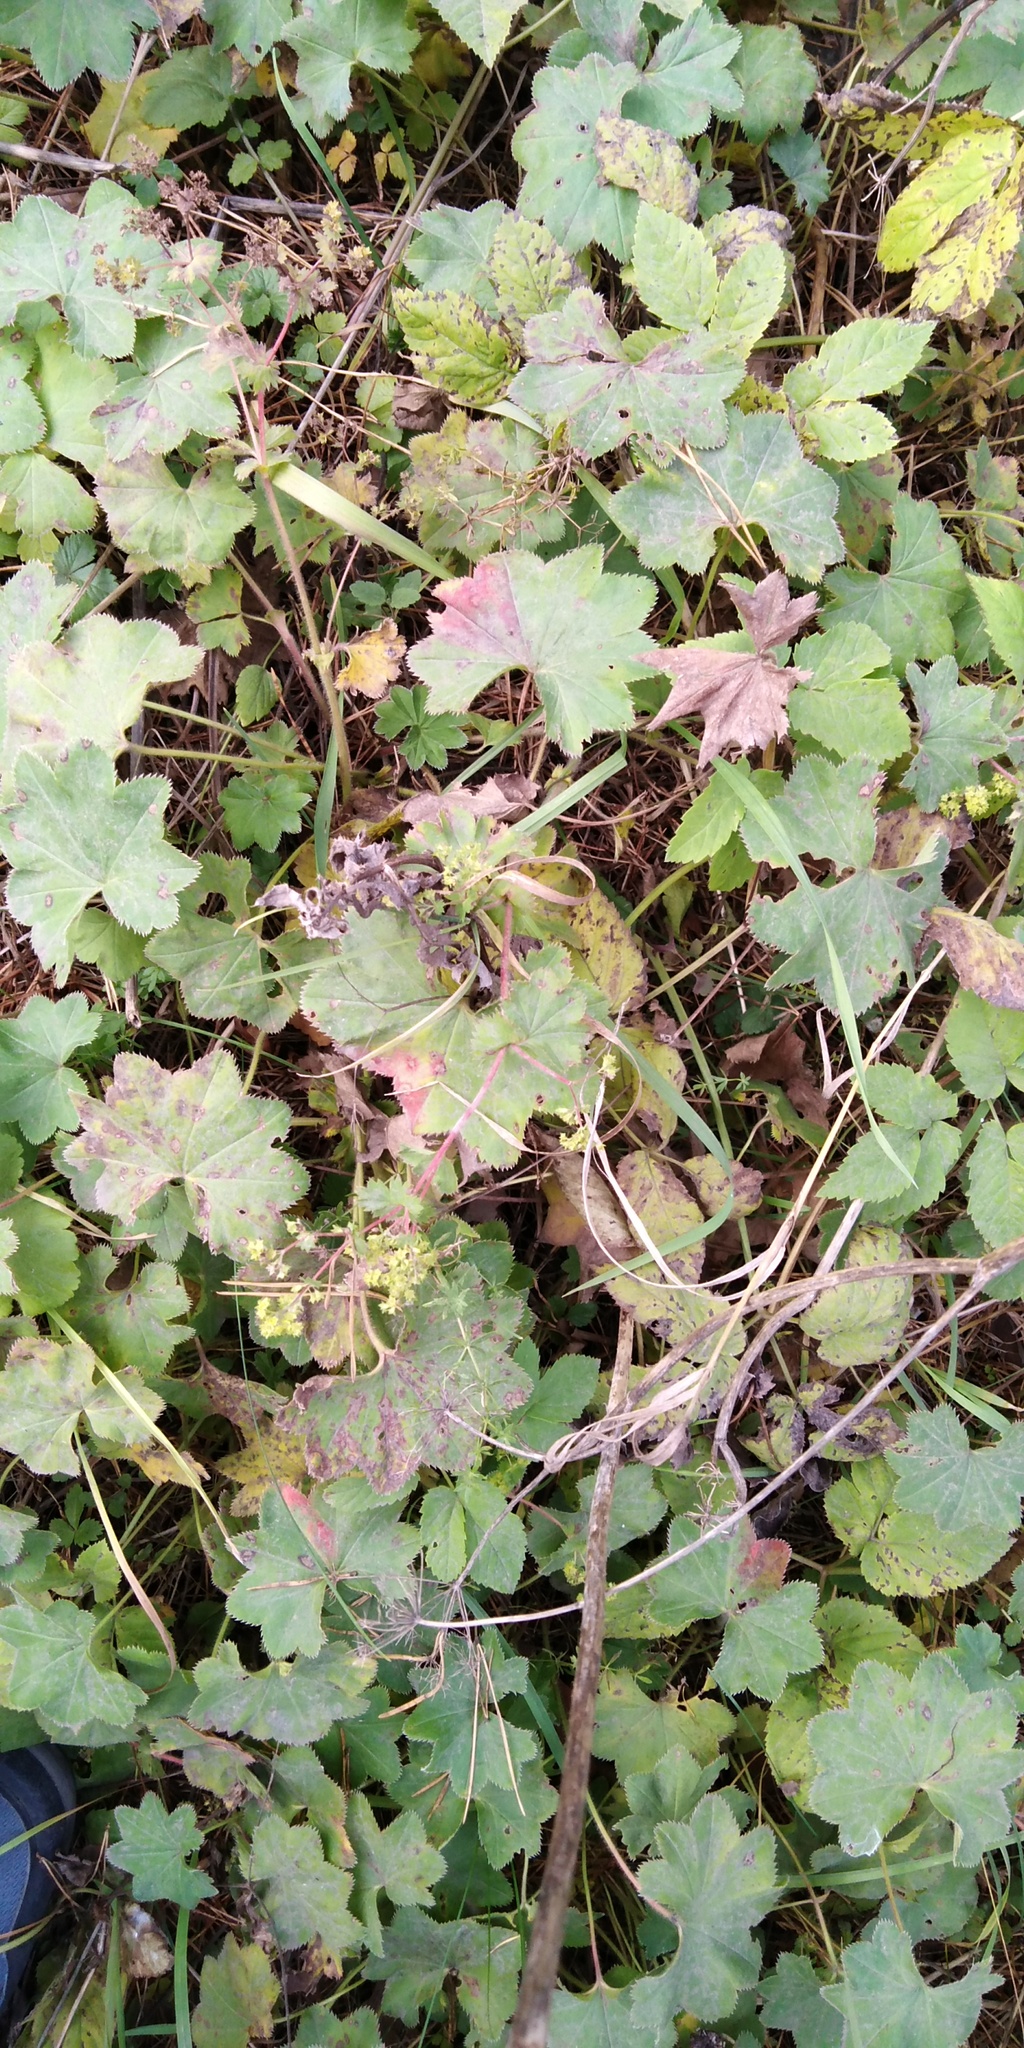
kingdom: Plantae
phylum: Tracheophyta
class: Magnoliopsida
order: Rosales
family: Rosaceae
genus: Alchemilla
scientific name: Alchemilla
